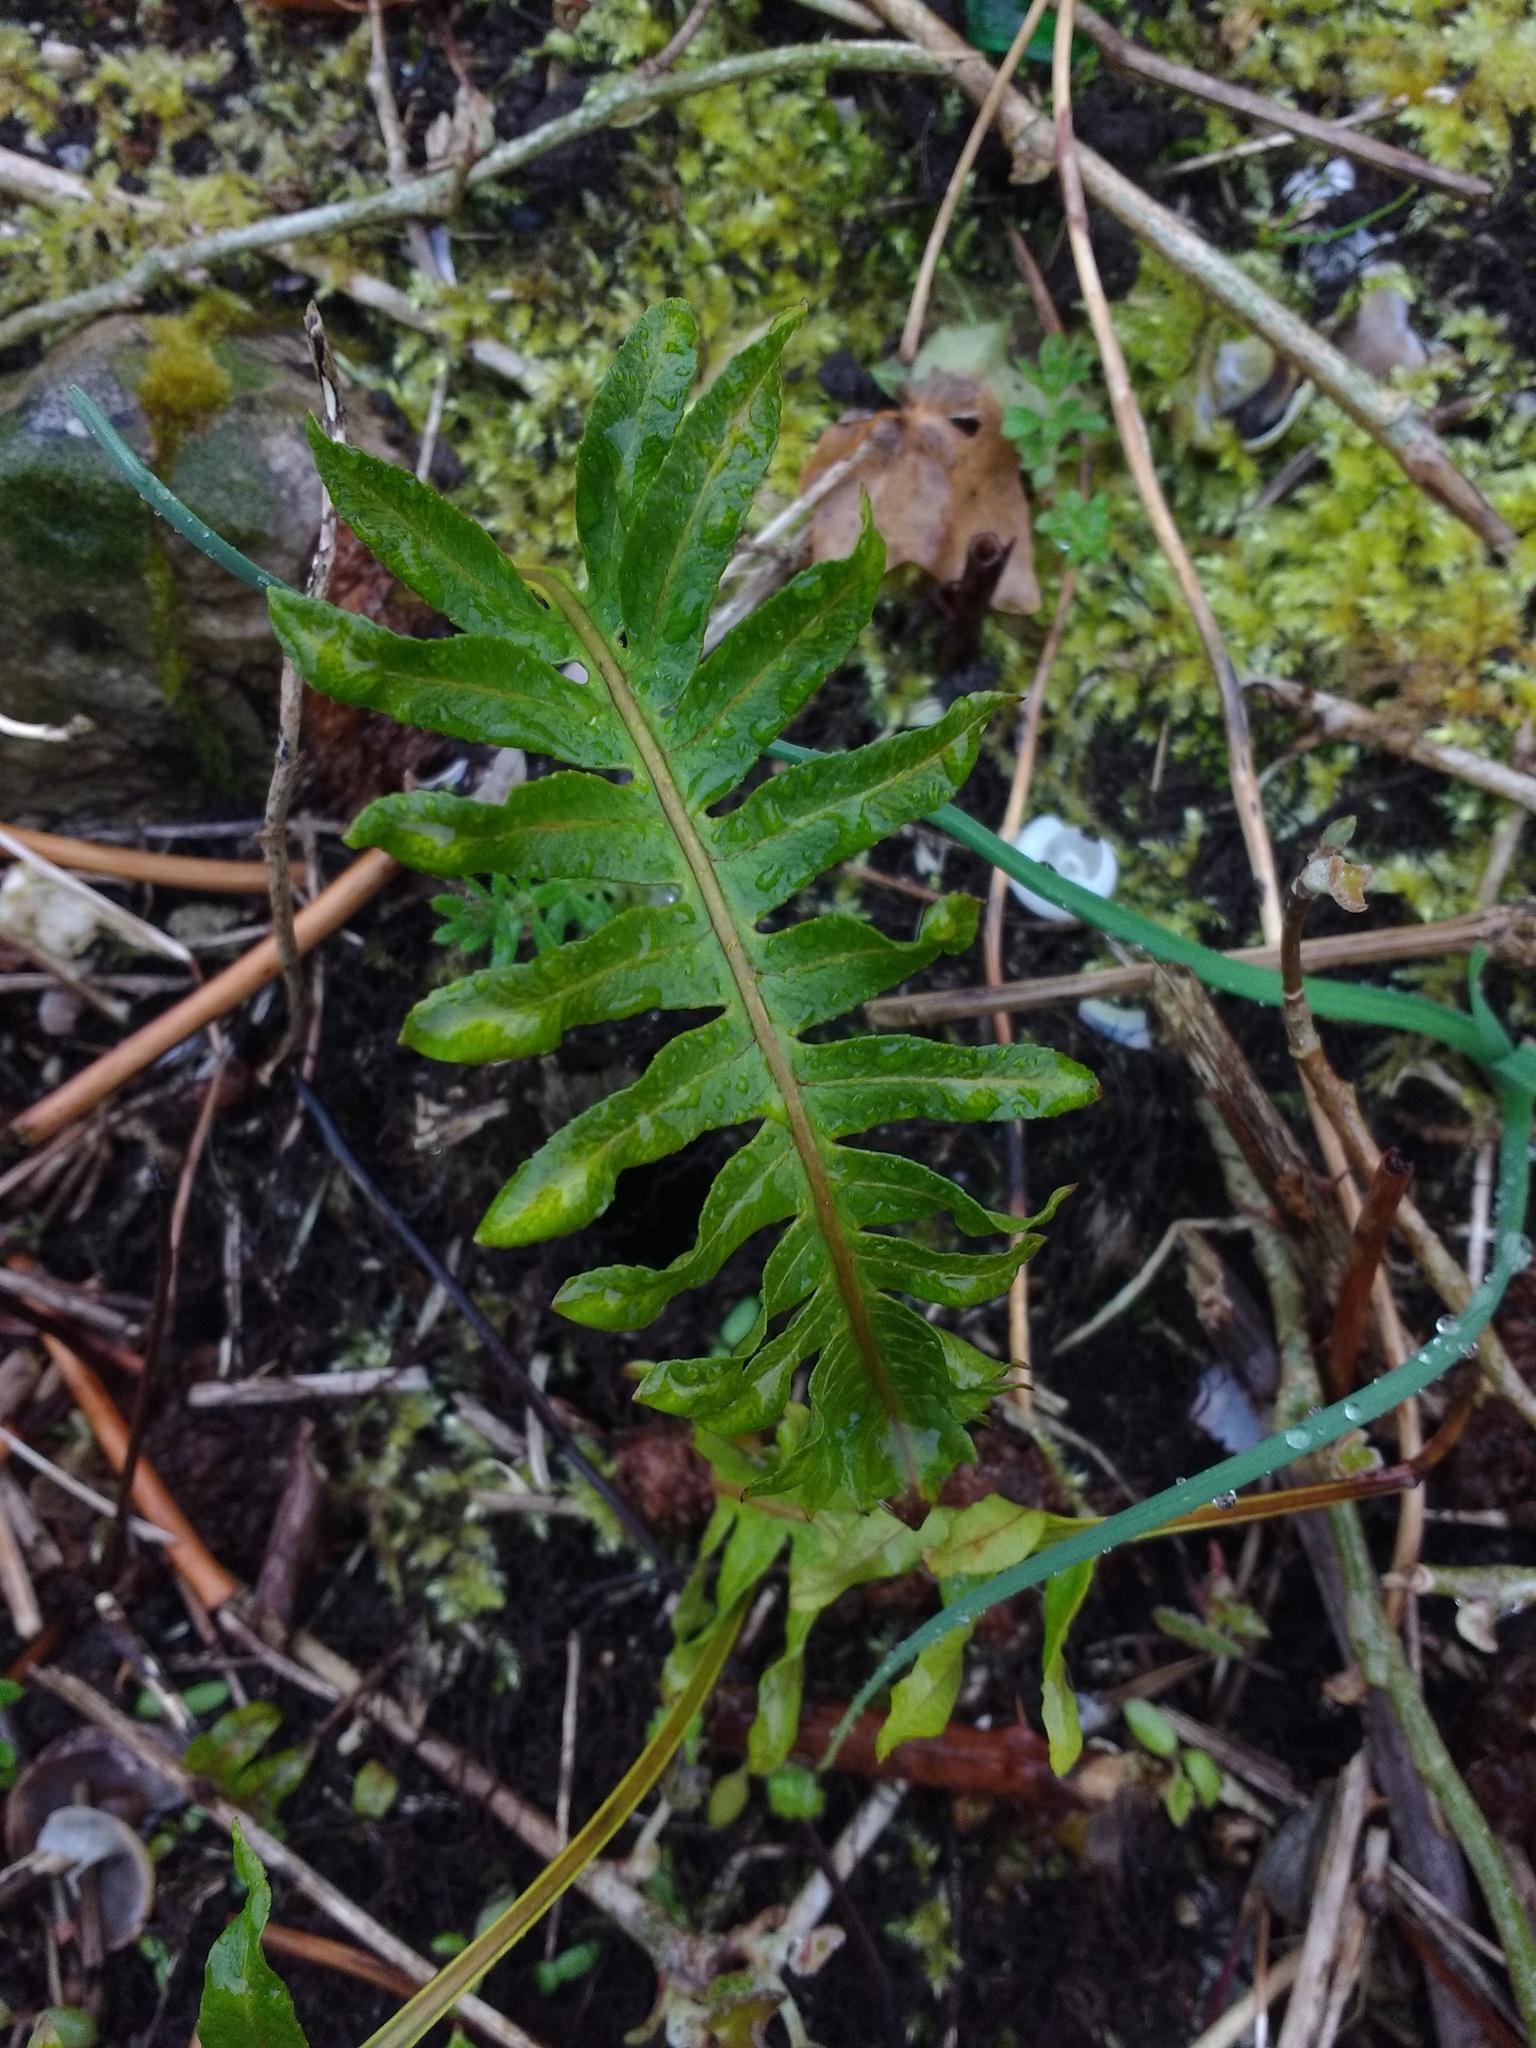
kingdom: Plantae
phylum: Tracheophyta
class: Polypodiopsida
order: Polypodiales
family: Polypodiaceae
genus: Polypodium
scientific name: Polypodium
